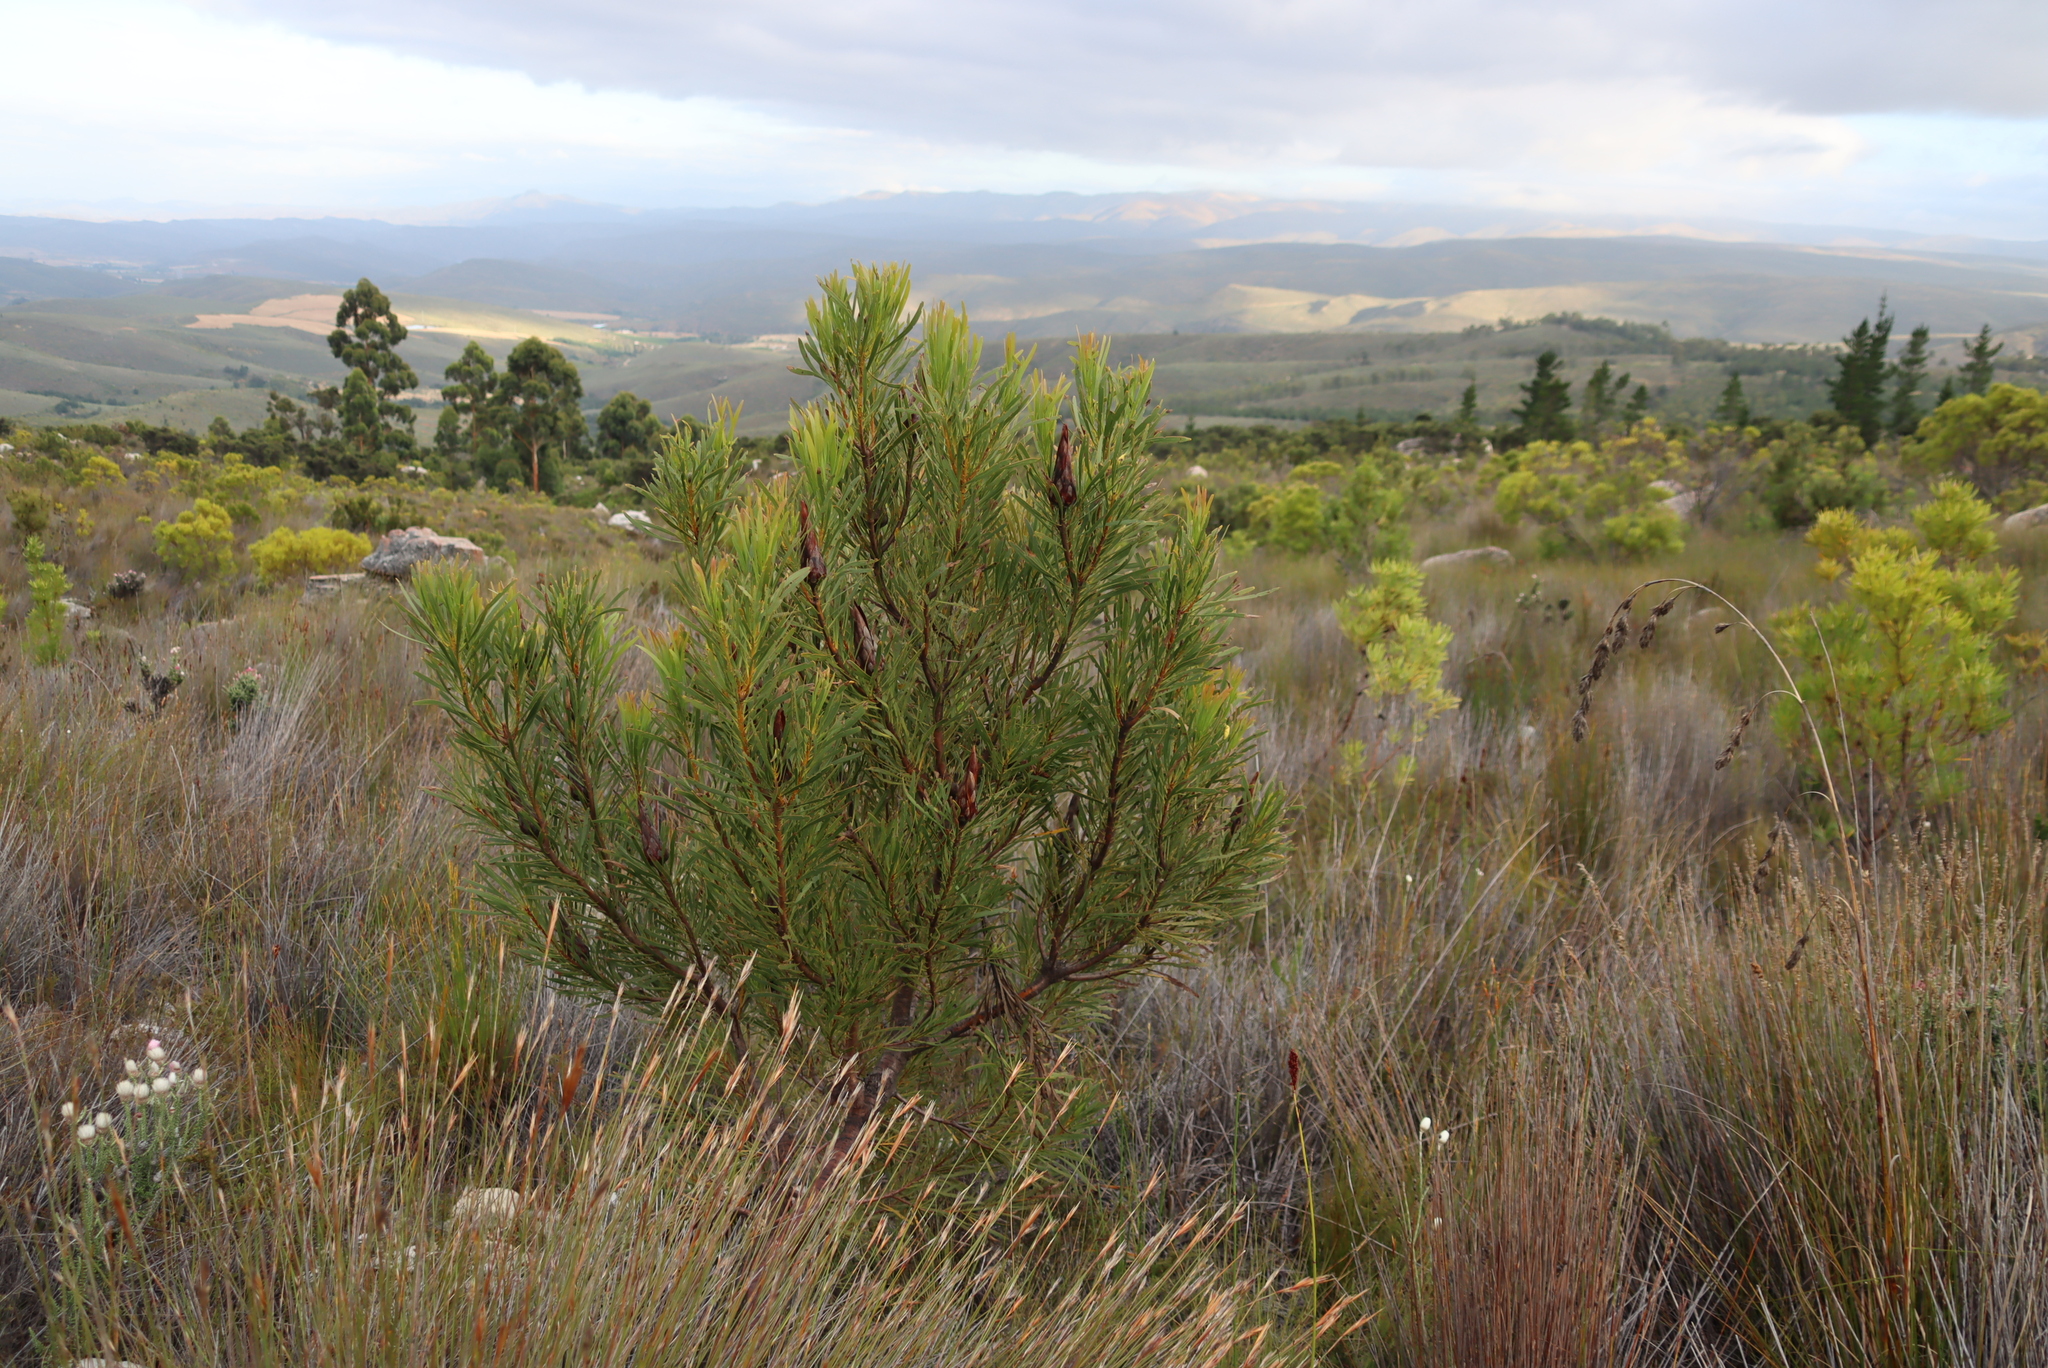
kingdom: Plantae
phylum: Tracheophyta
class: Magnoliopsida
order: Proteales
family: Proteaceae
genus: Protea
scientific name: Protea repens
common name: Sugarbush
